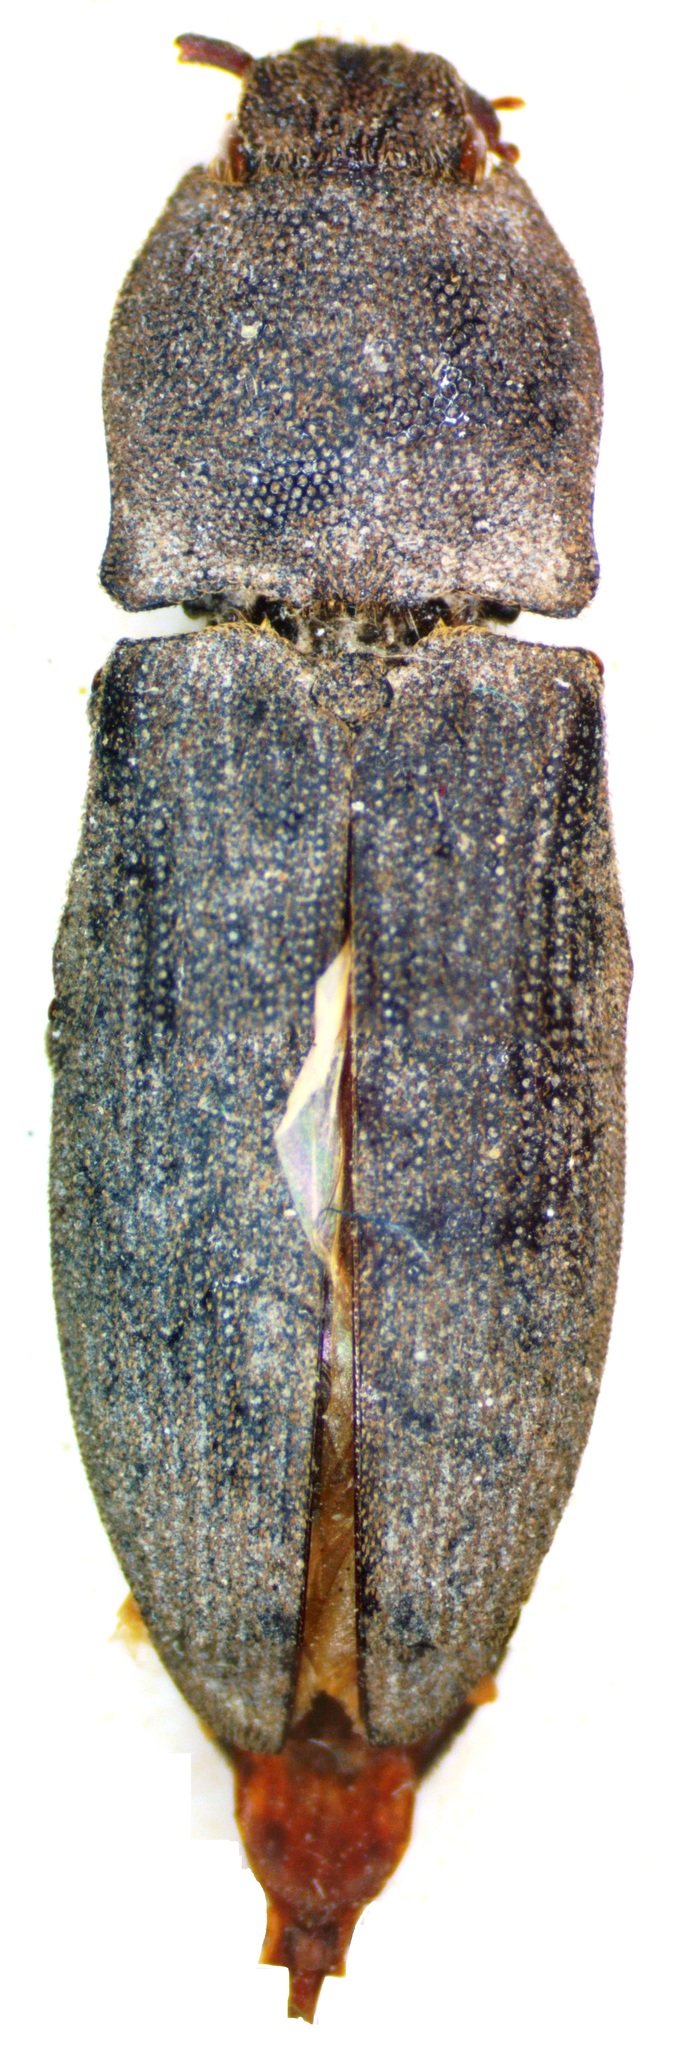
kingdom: Animalia
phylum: Arthropoda
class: Insecta
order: Coleoptera
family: Elateridae
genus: Agrypnus
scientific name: Agrypnus
